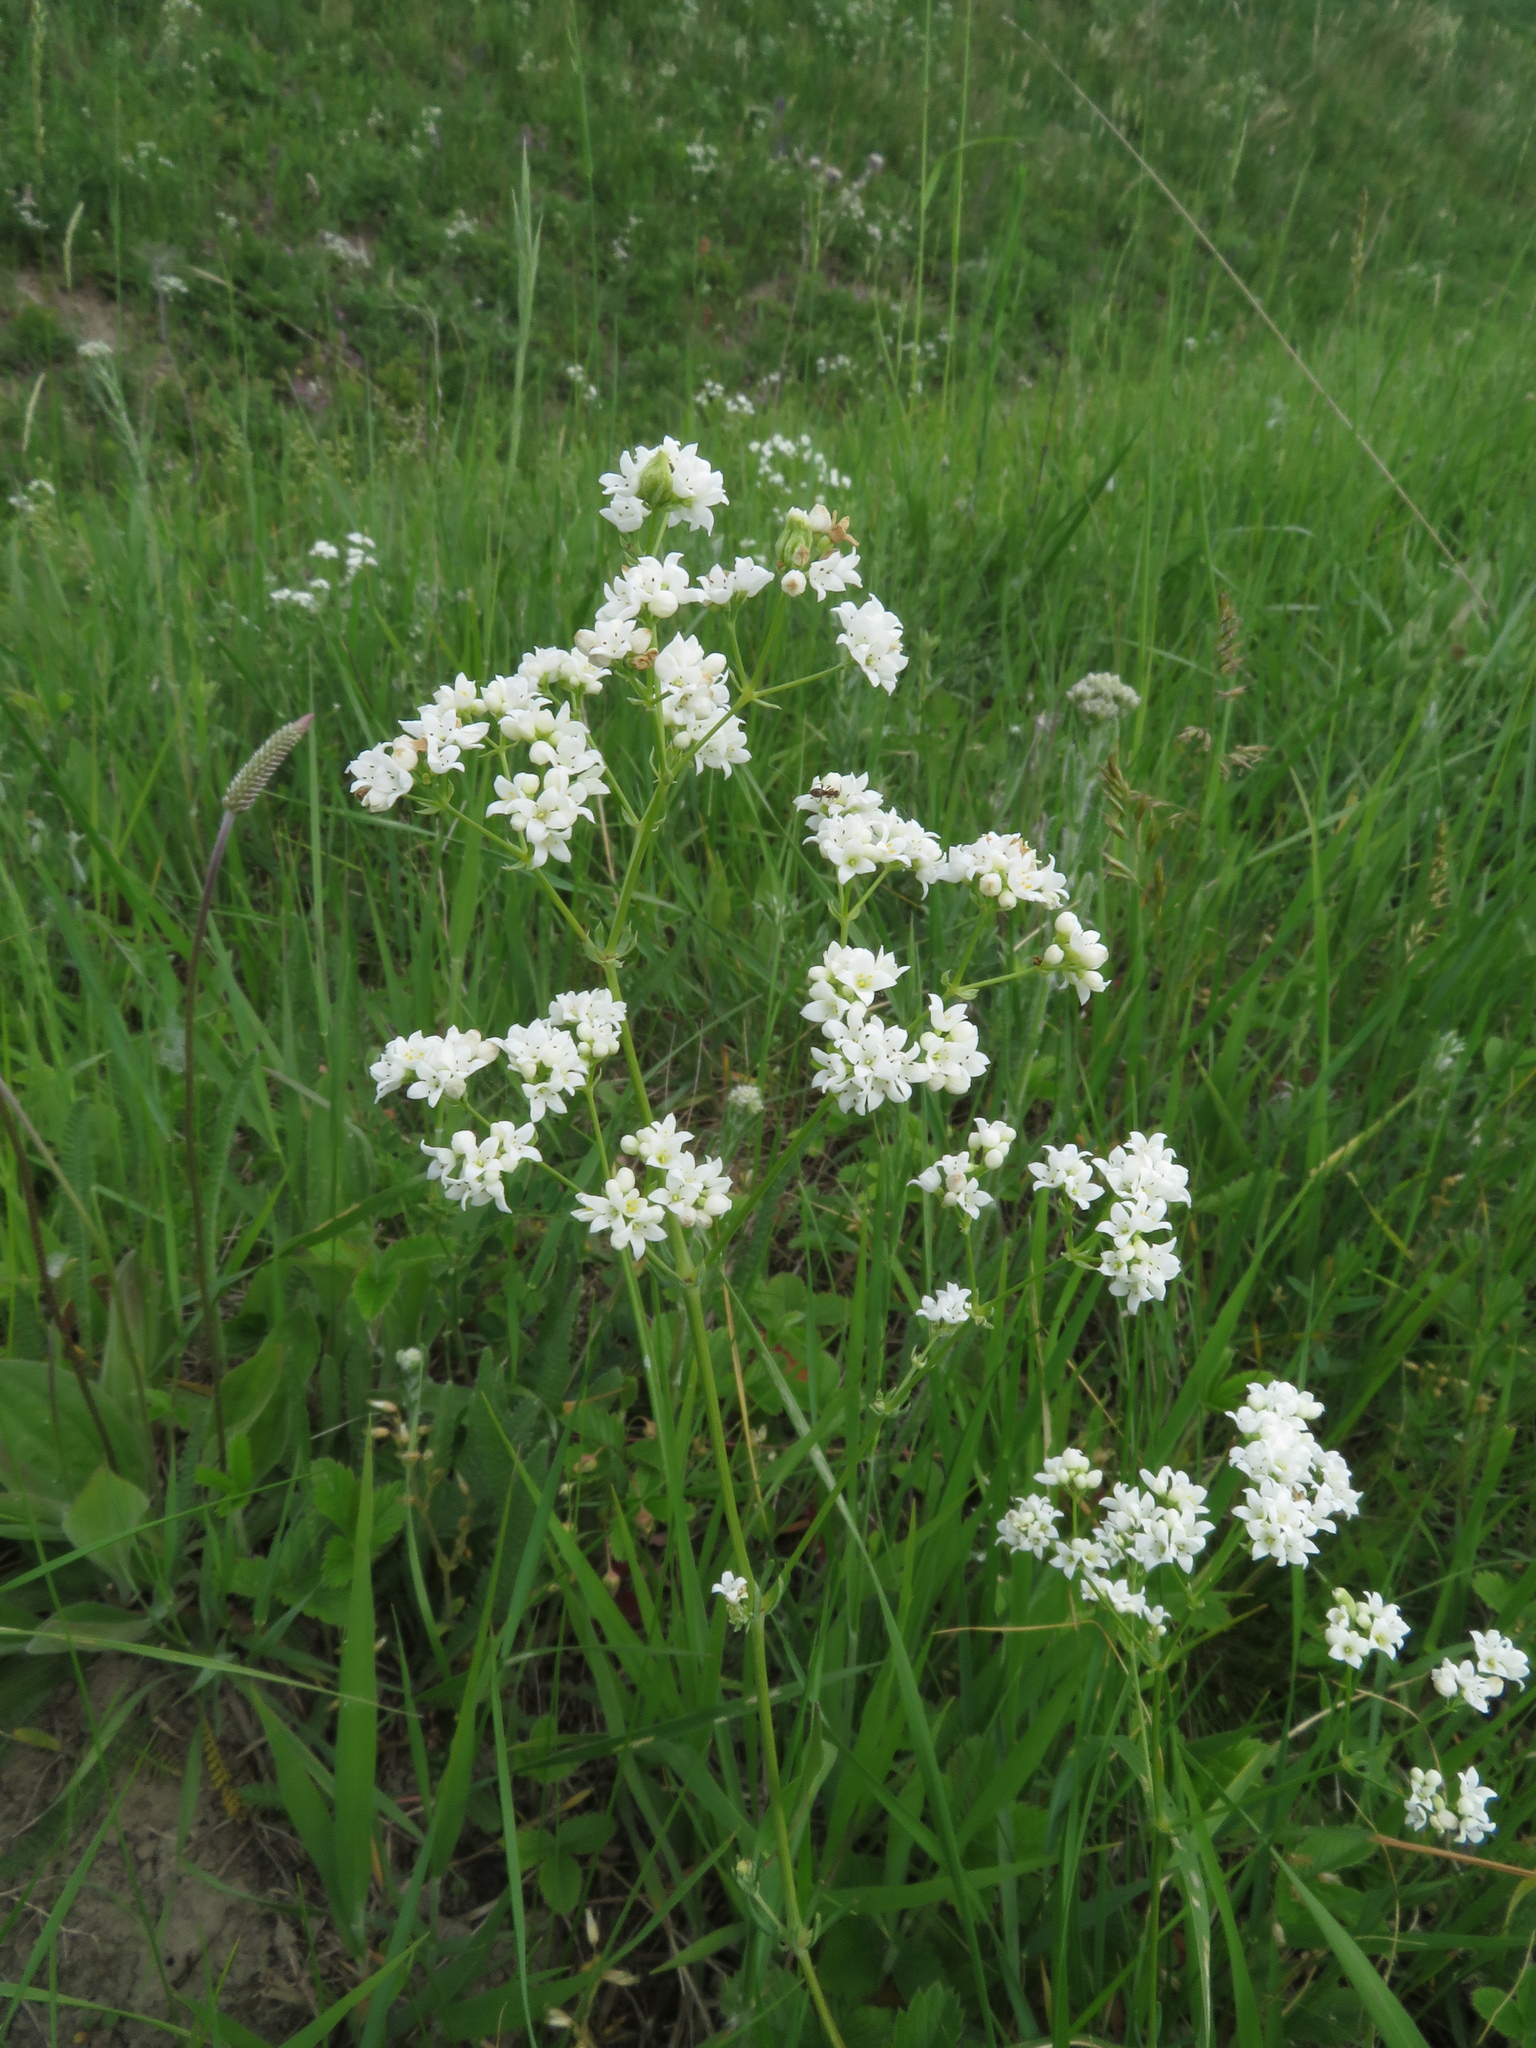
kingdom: Plantae
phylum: Tracheophyta
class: Magnoliopsida
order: Gentianales
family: Rubiaceae
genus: Galium
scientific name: Galium glaucum
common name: Waxy bedstraw
